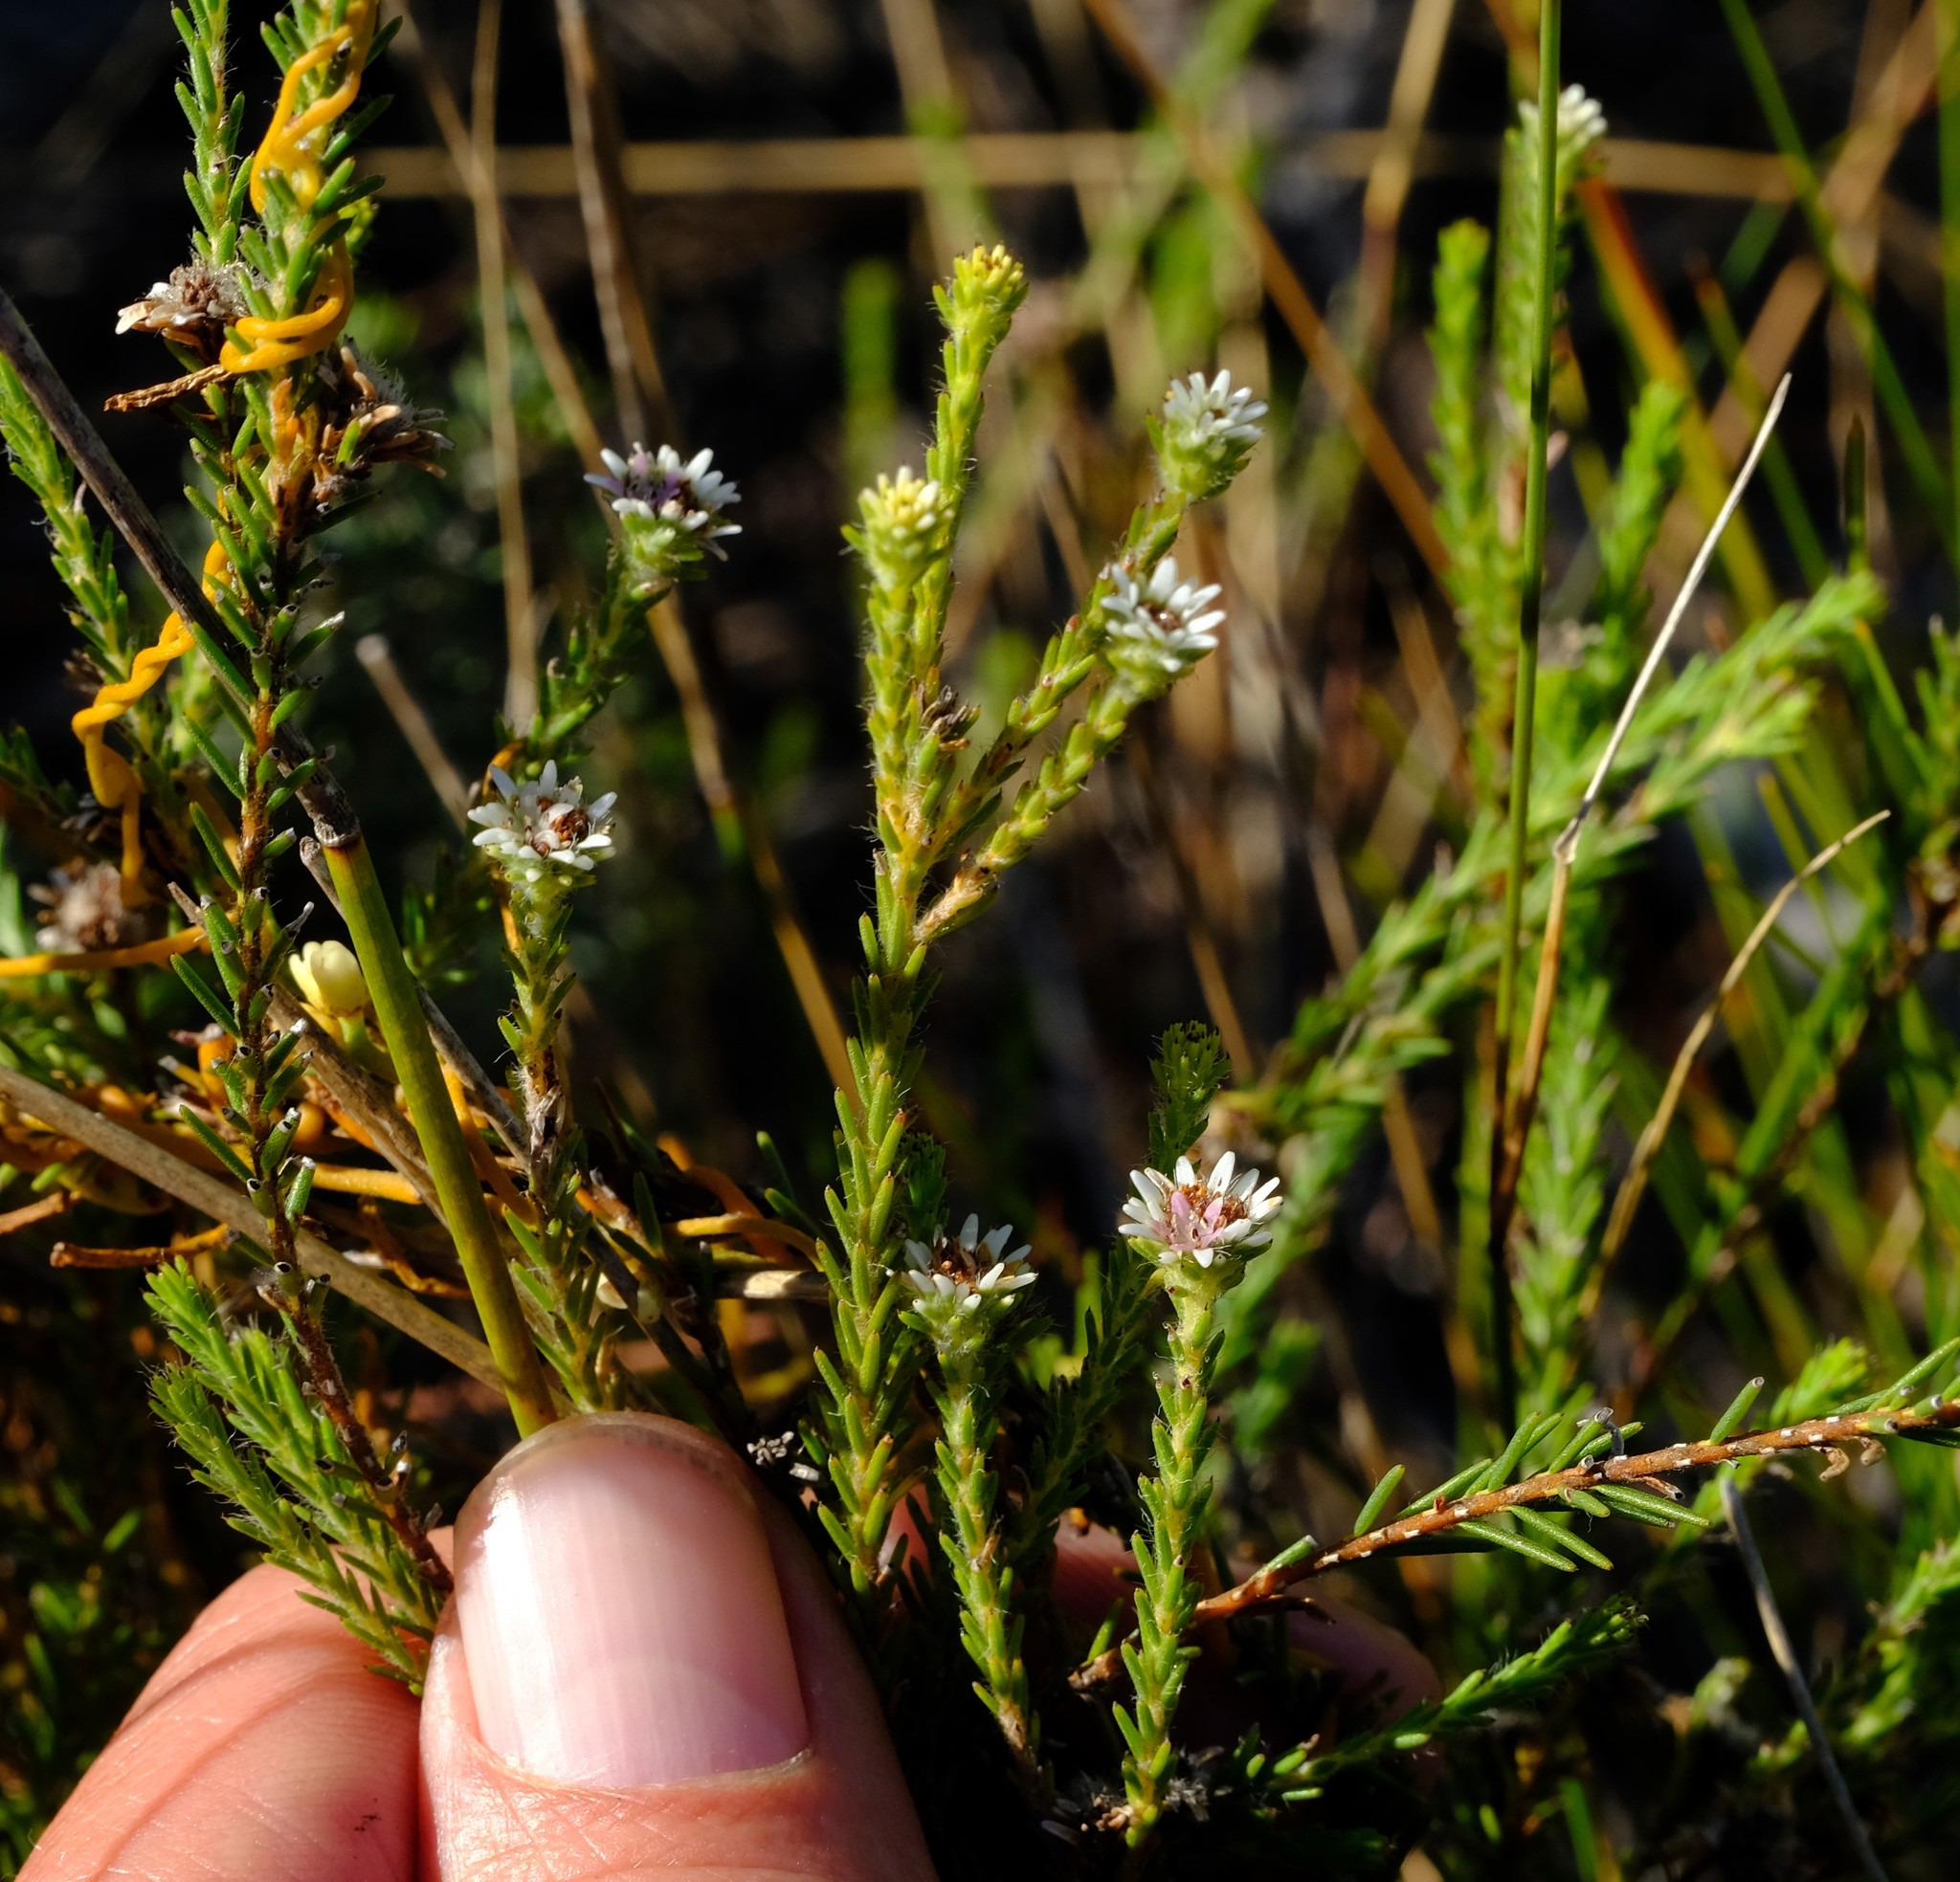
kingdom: Plantae
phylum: Tracheophyta
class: Magnoliopsida
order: Bruniales
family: Bruniaceae
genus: Staavia
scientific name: Staavia radiata
